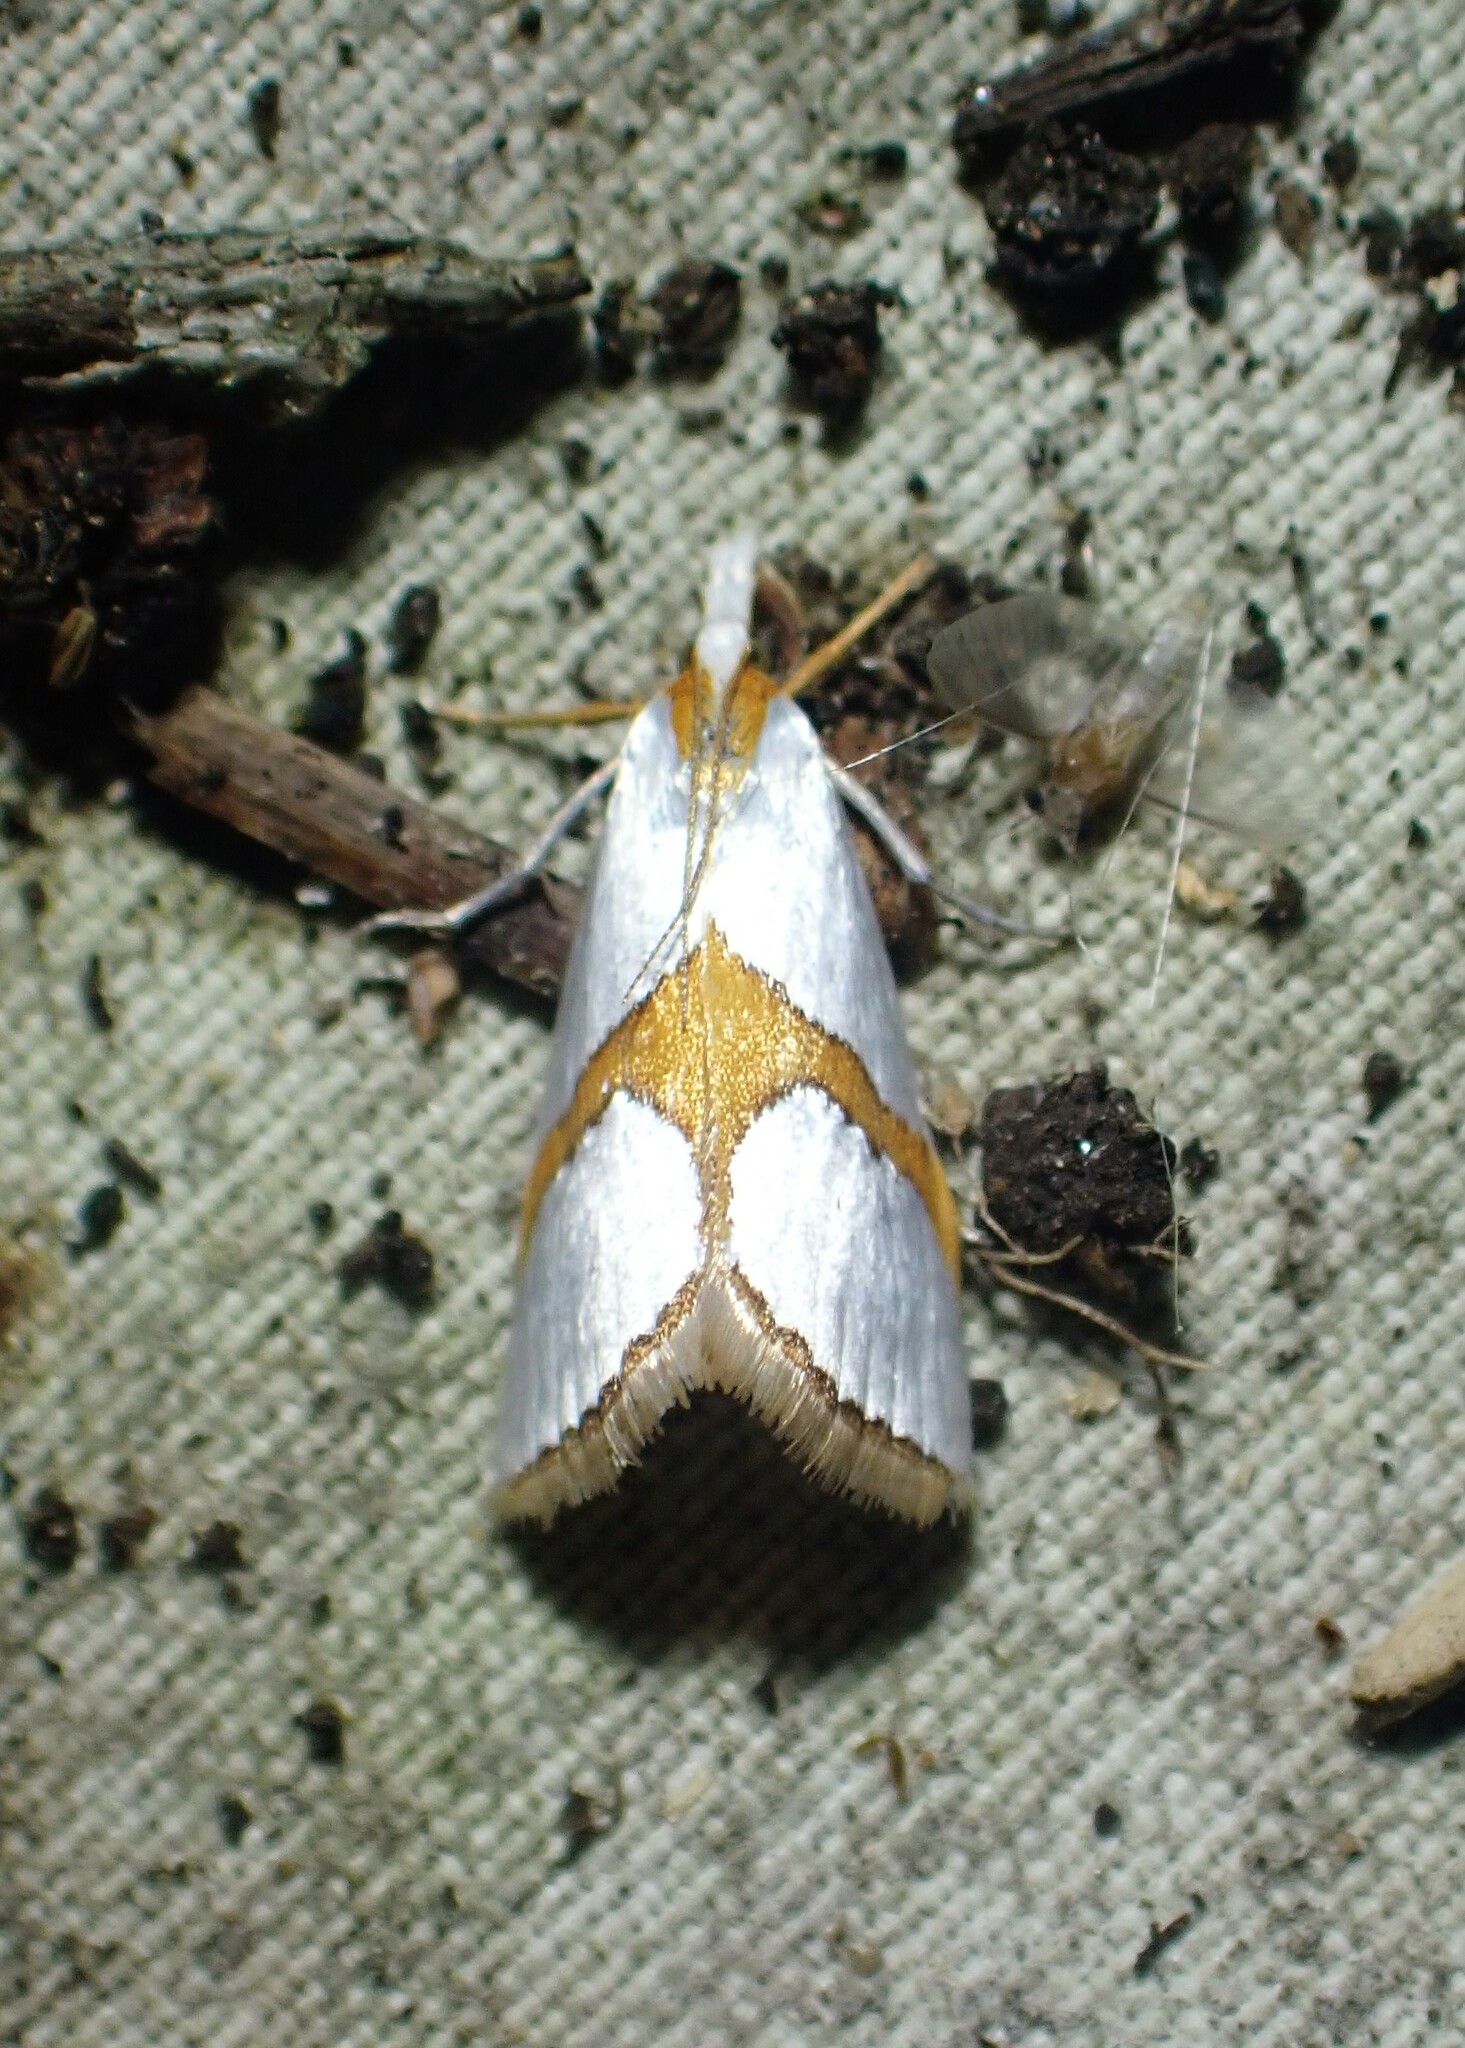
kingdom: Animalia
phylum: Arthropoda
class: Insecta
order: Lepidoptera
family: Crambidae
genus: Argyria
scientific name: Argyria auratella
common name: Curve-lined argyria moth
